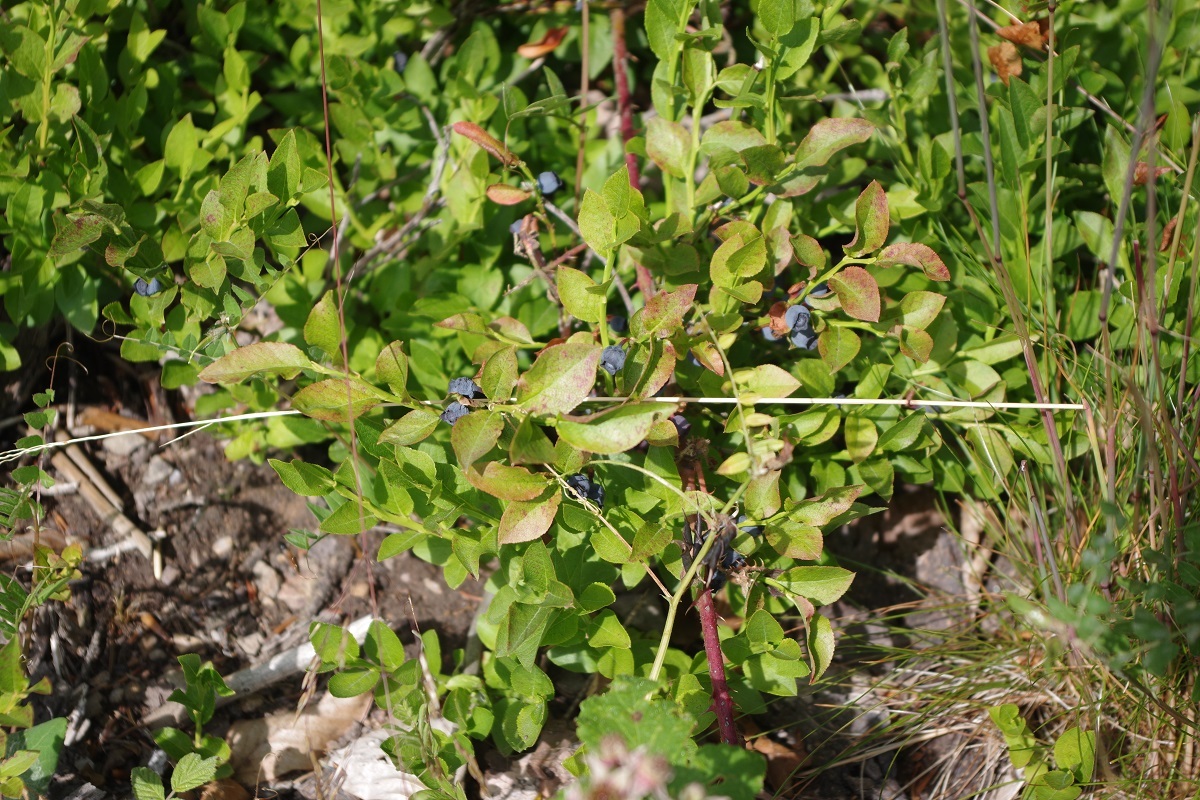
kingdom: Plantae
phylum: Tracheophyta
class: Magnoliopsida
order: Ericales
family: Ericaceae
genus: Vaccinium
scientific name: Vaccinium myrtillus
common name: Bilberry
